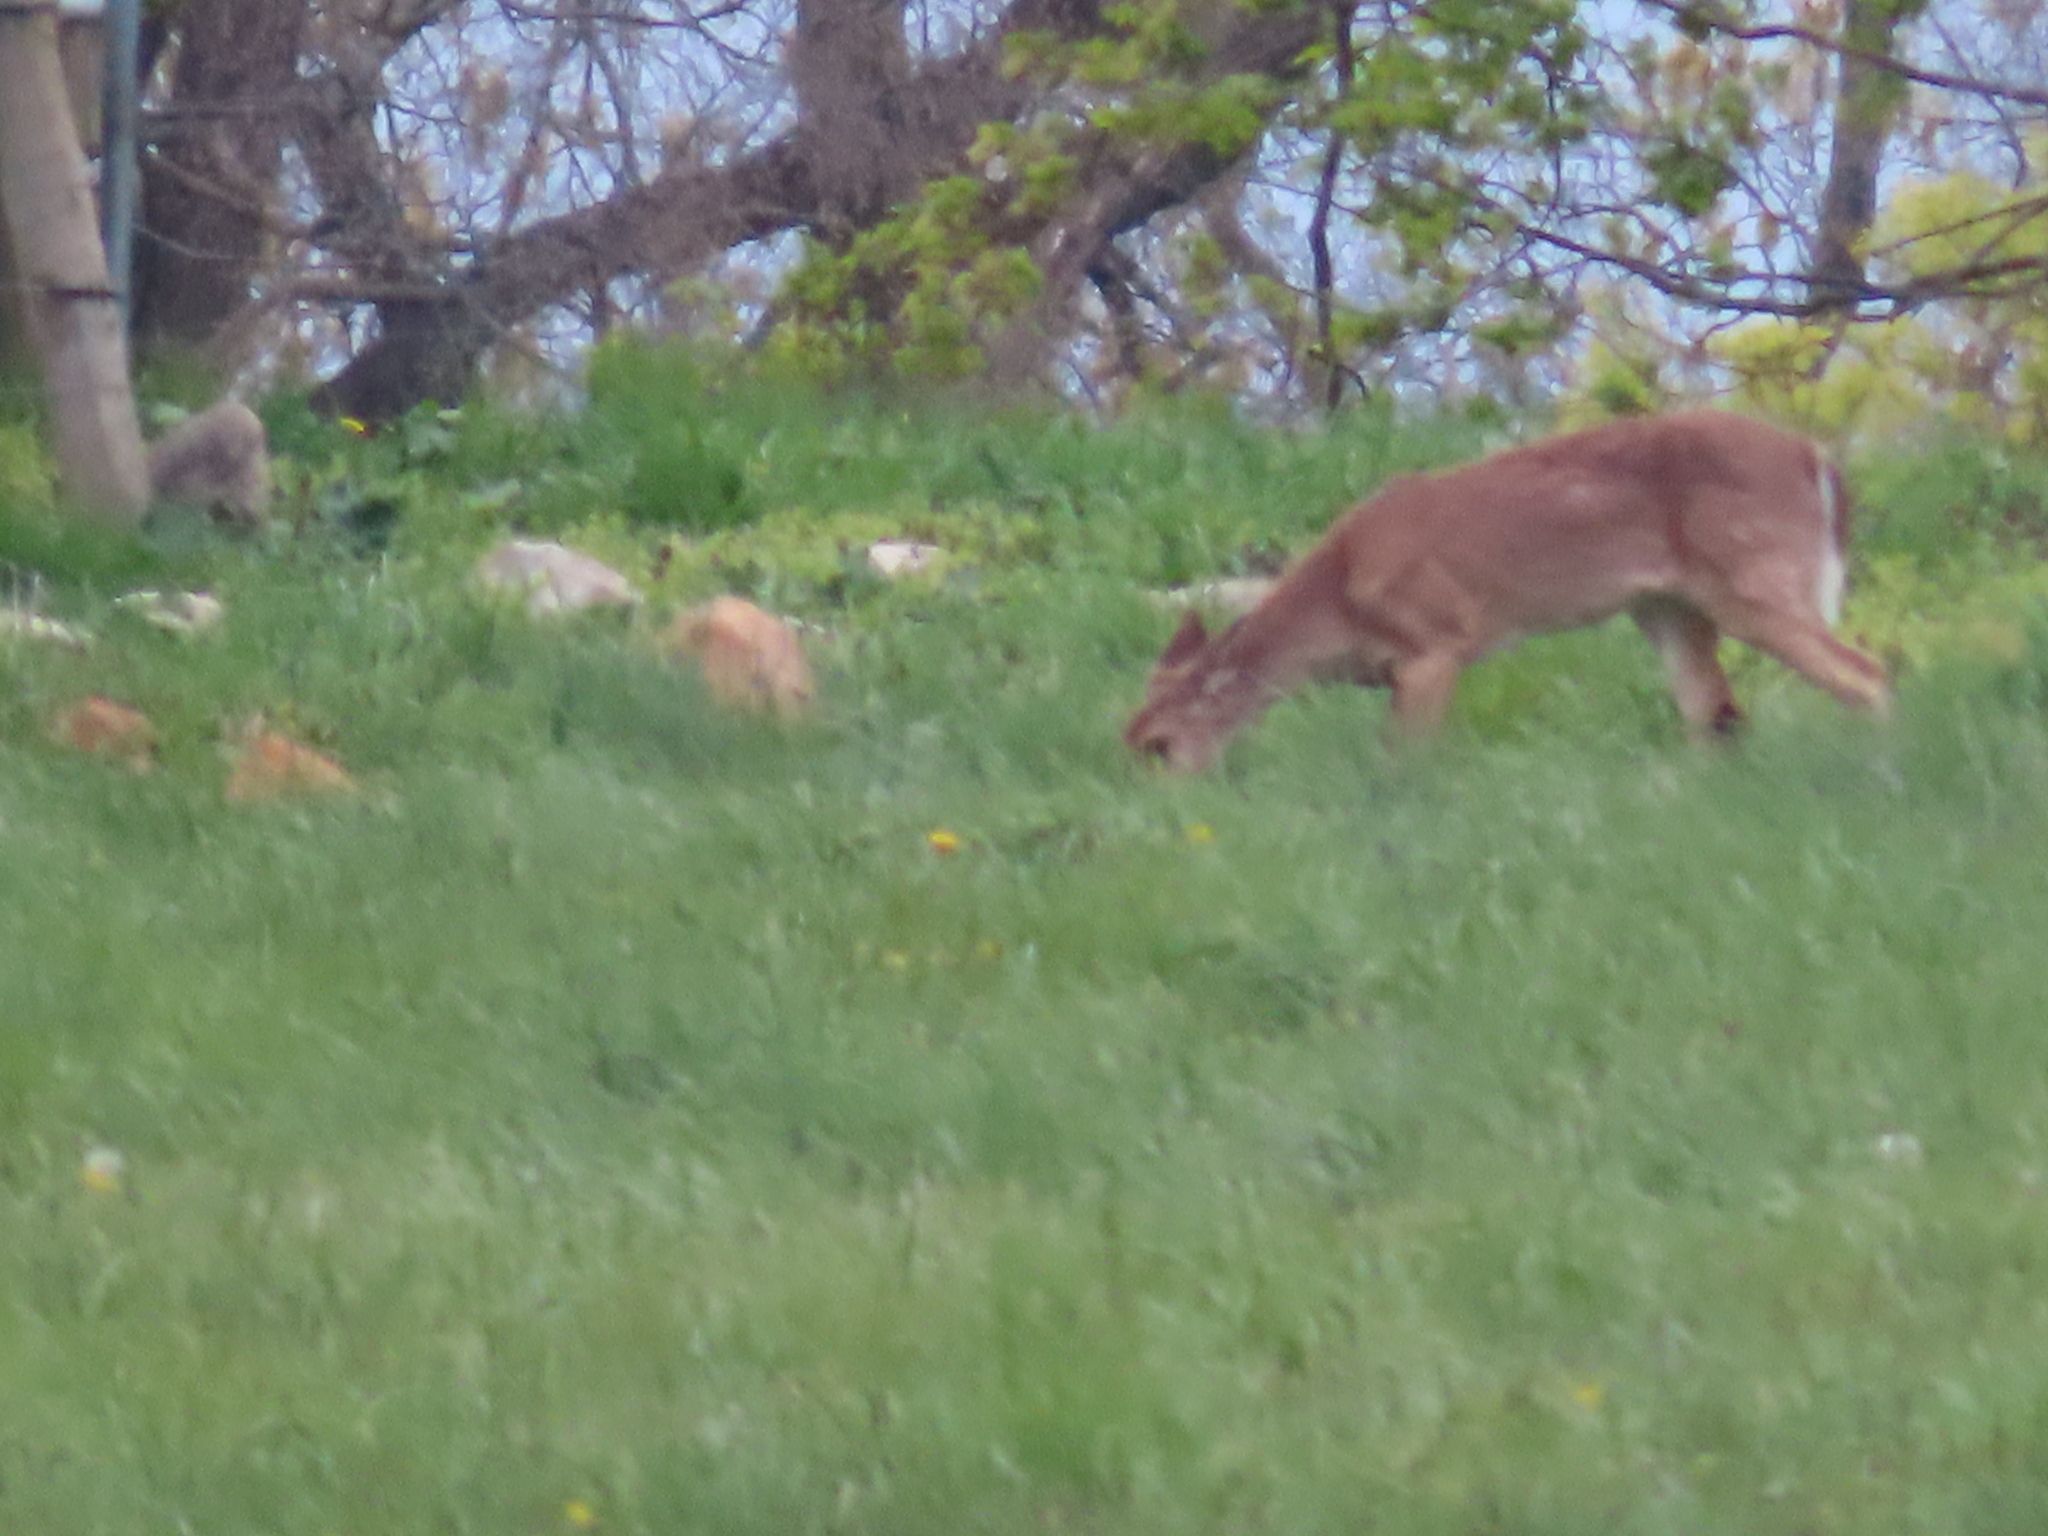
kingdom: Animalia
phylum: Chordata
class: Mammalia
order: Artiodactyla
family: Cervidae
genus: Odocoileus
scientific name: Odocoileus virginianus
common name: White-tailed deer
